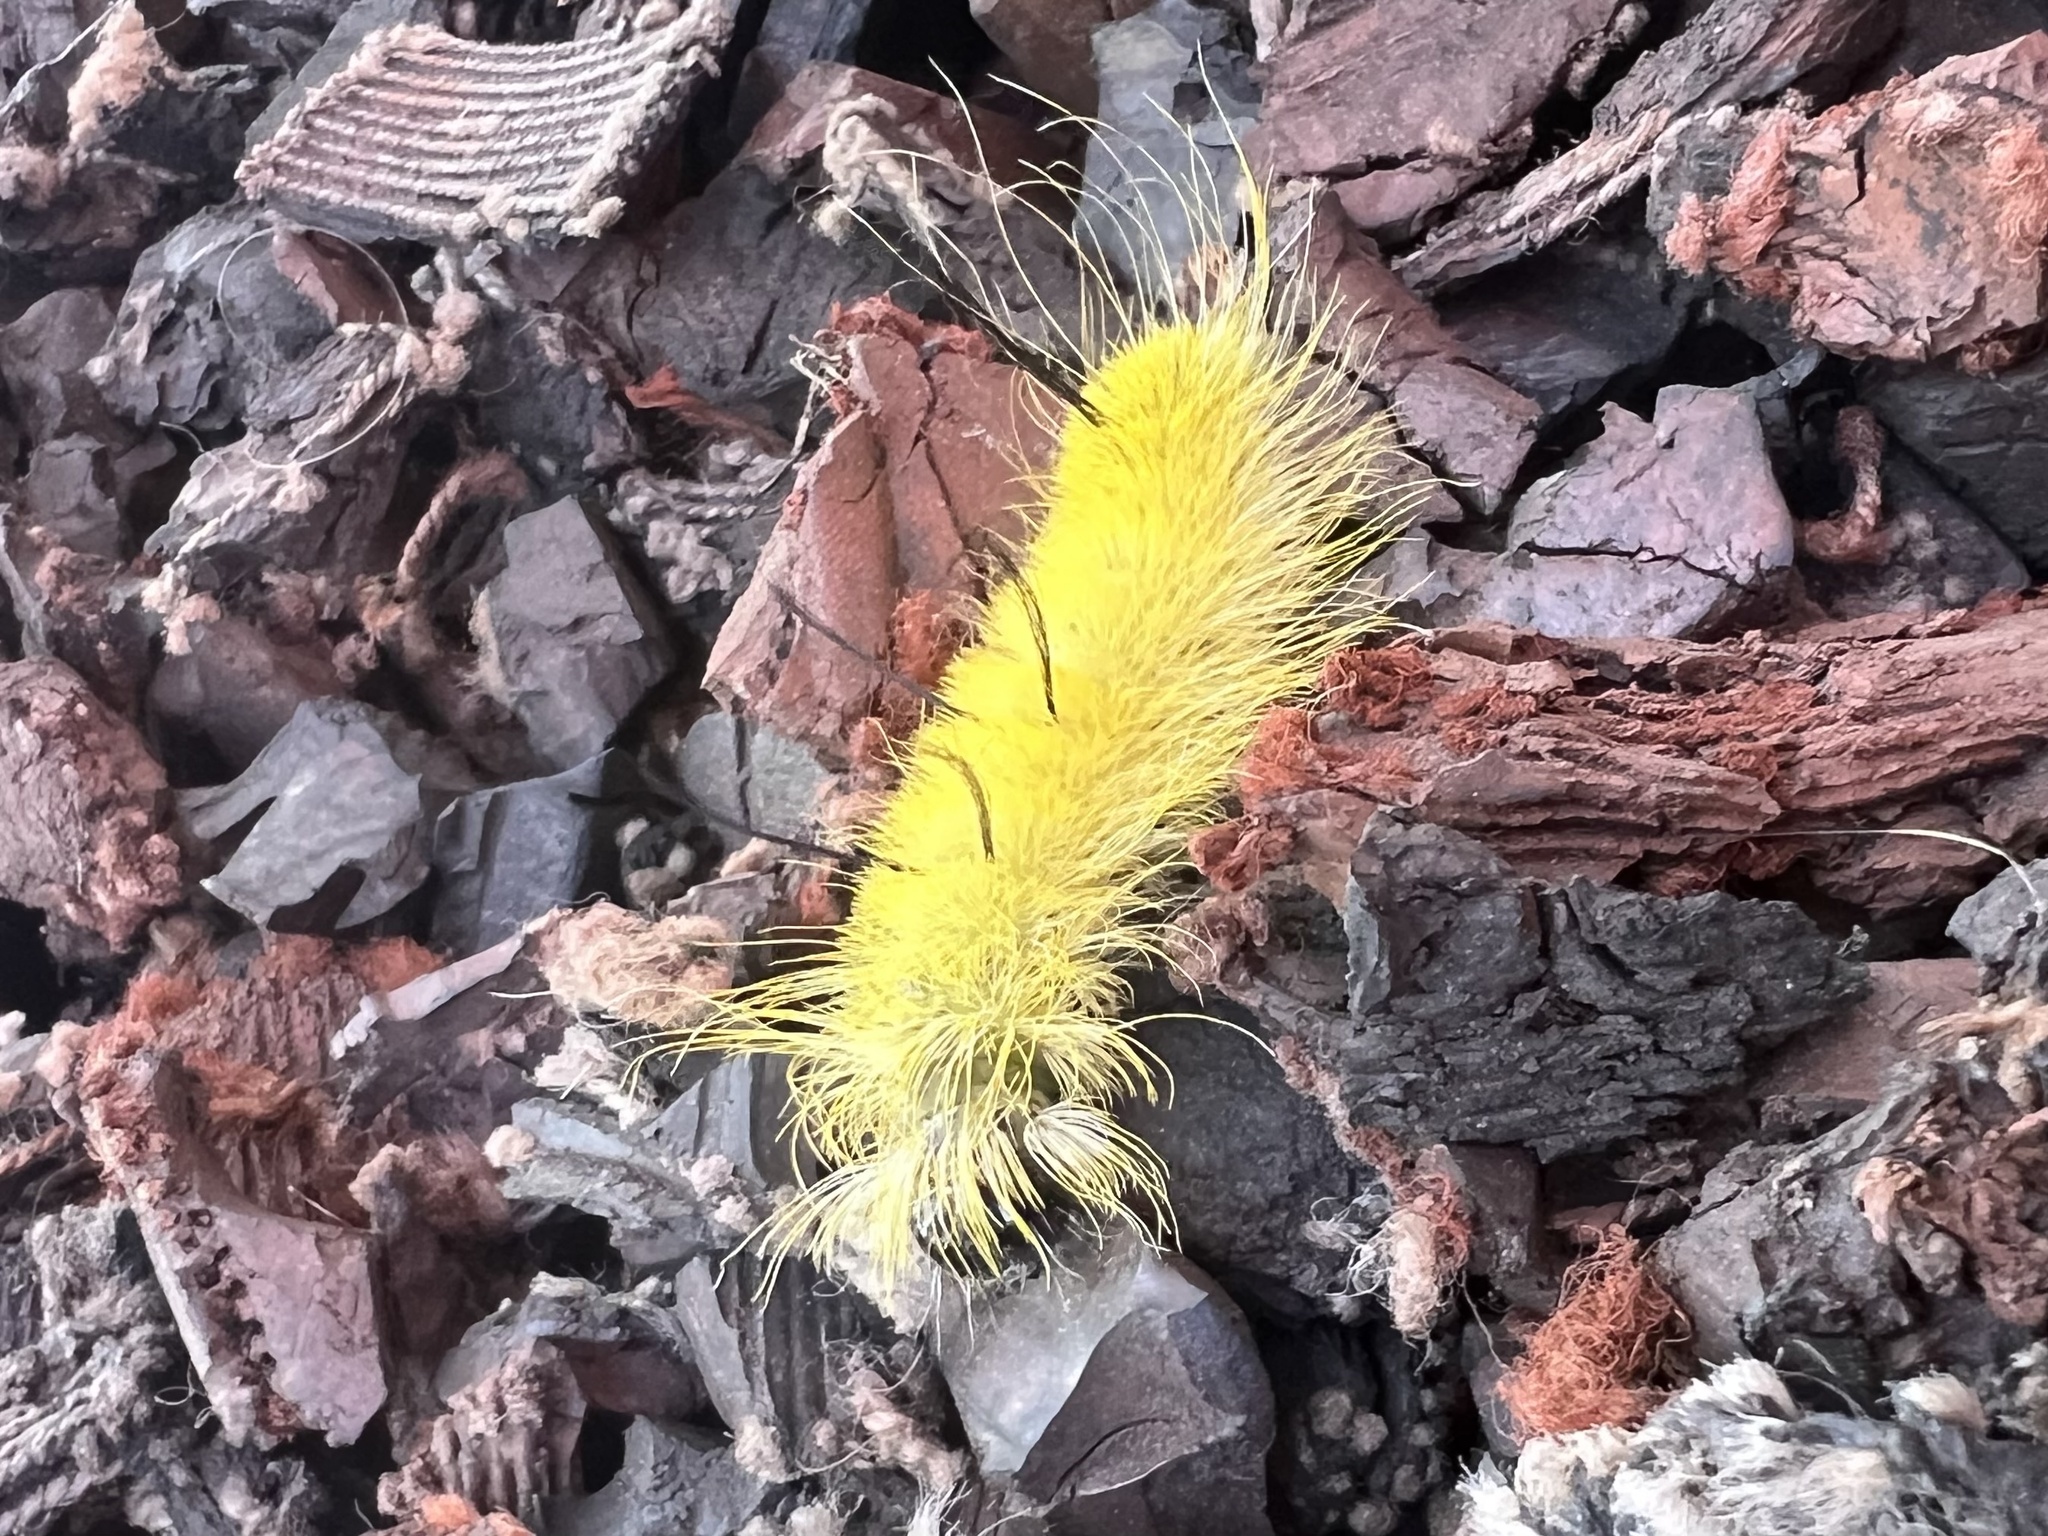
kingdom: Animalia
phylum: Arthropoda
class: Insecta
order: Lepidoptera
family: Noctuidae
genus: Acronicta
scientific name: Acronicta americana
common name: American dagger
